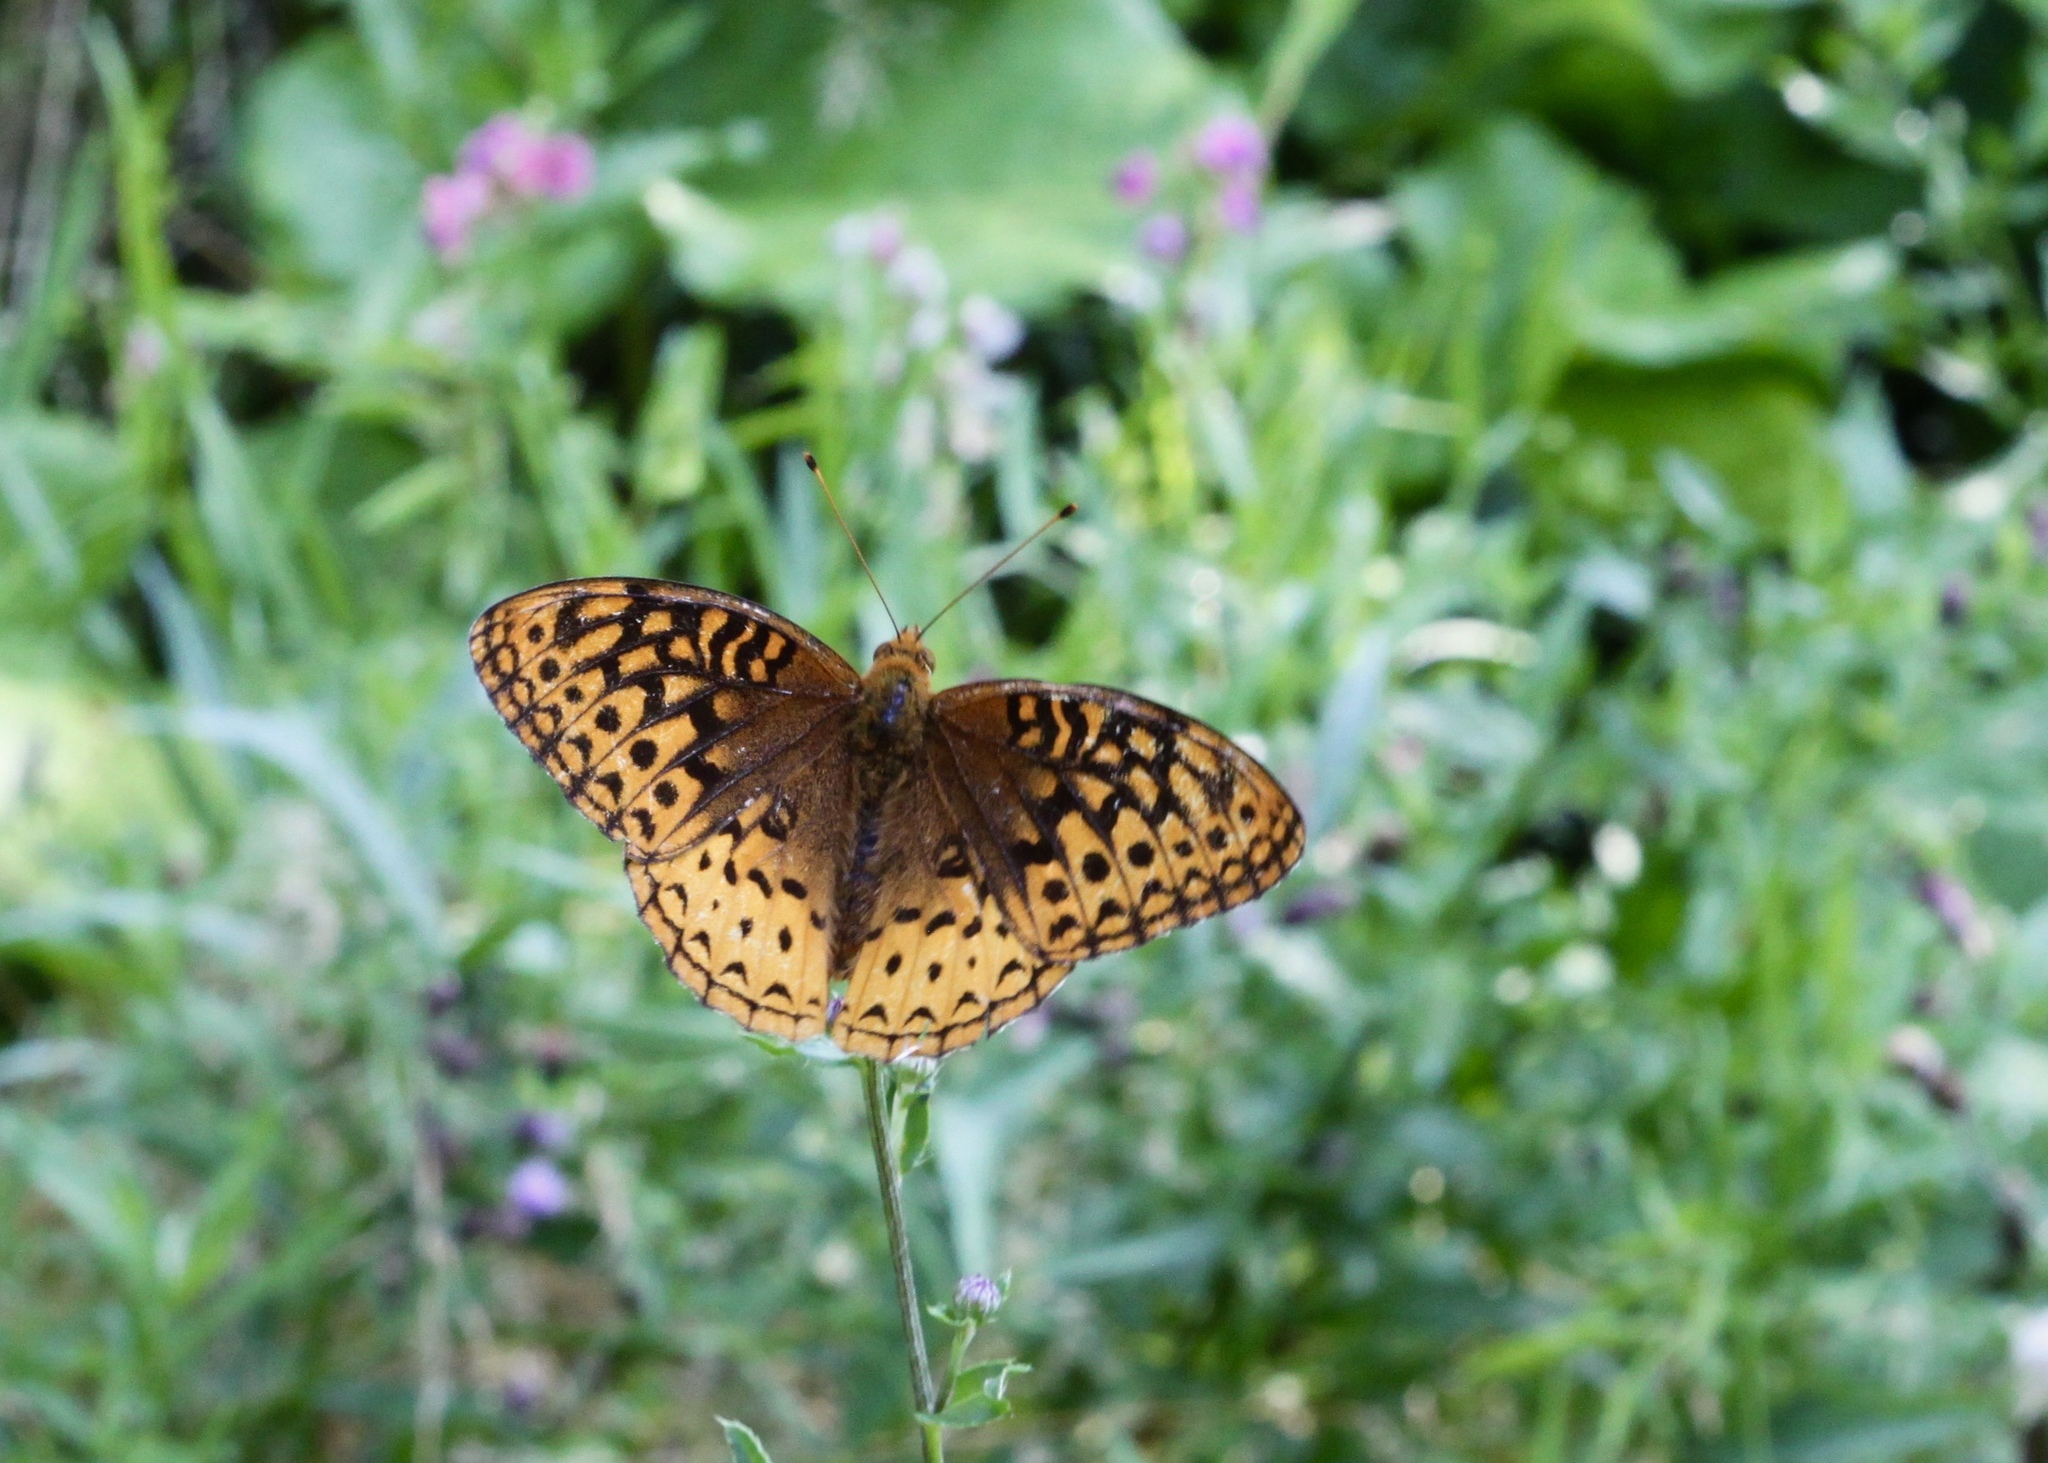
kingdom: Animalia
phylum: Arthropoda
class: Insecta
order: Lepidoptera
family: Nymphalidae
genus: Speyeria
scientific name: Speyeria cybele
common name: Great spangled fritillary
